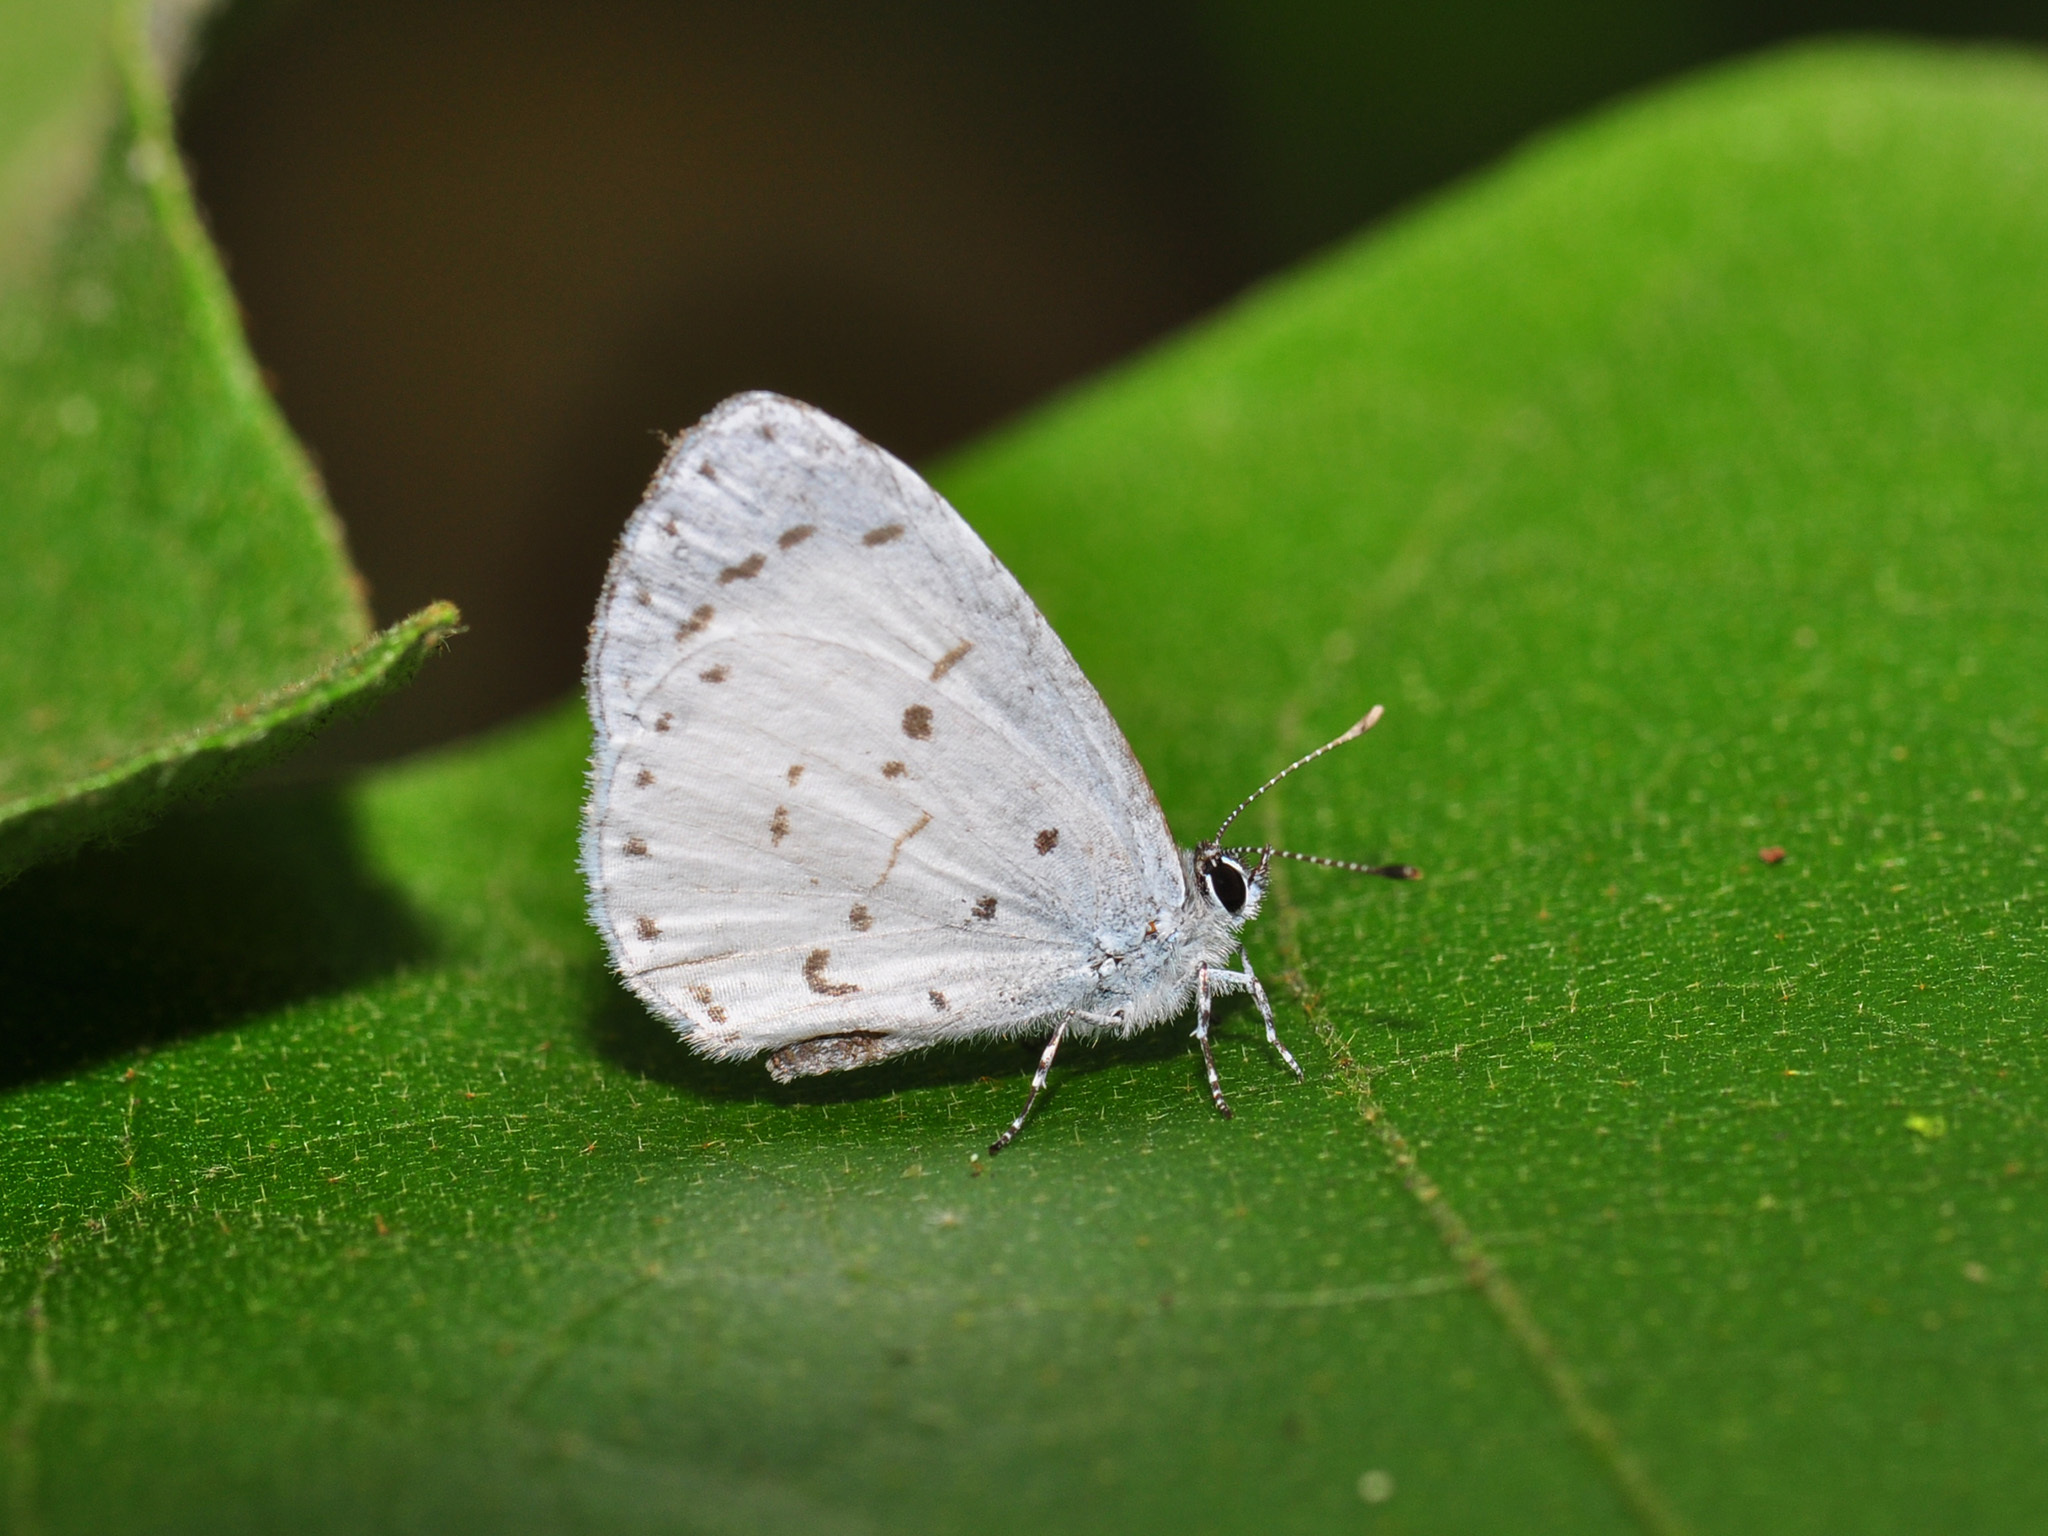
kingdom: Animalia
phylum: Arthropoda
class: Insecta
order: Lepidoptera
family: Lycaenidae
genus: Udara
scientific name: Udara akasa
